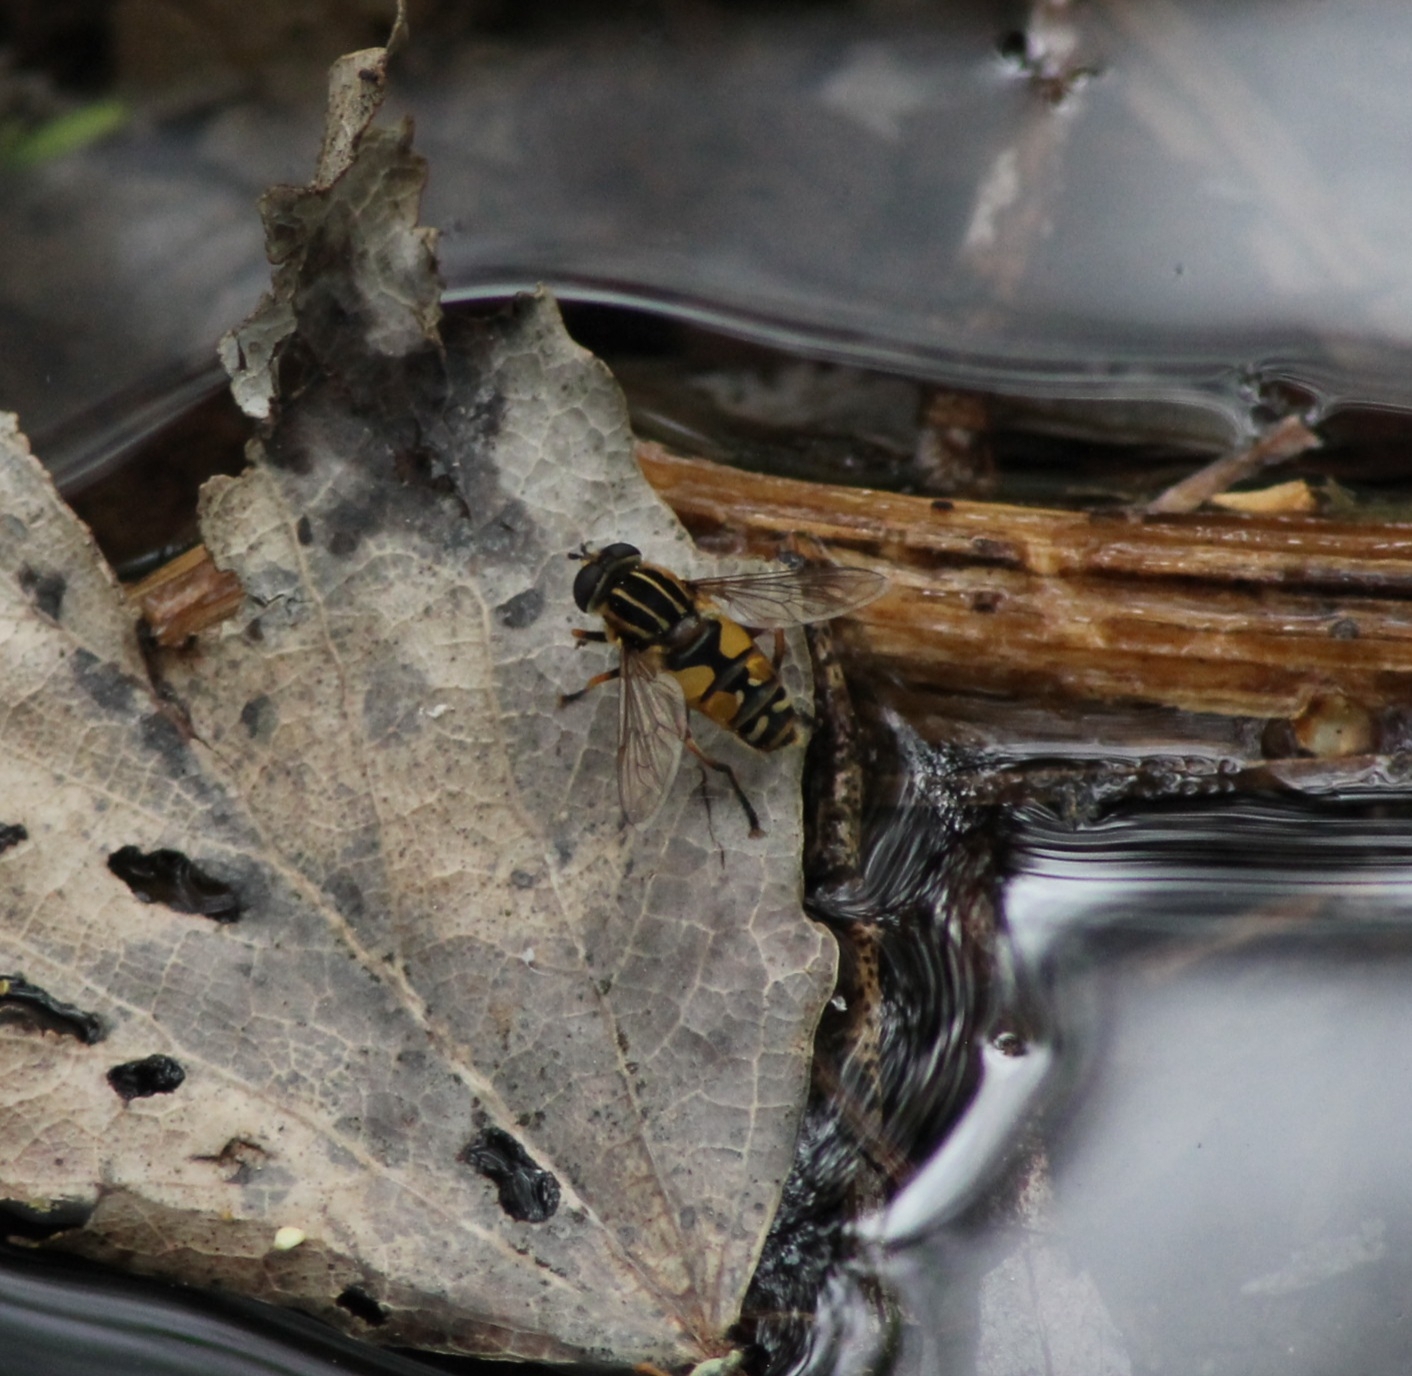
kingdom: Animalia
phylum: Arthropoda
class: Insecta
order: Diptera
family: Syrphidae
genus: Helophilus
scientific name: Helophilus pendulus
